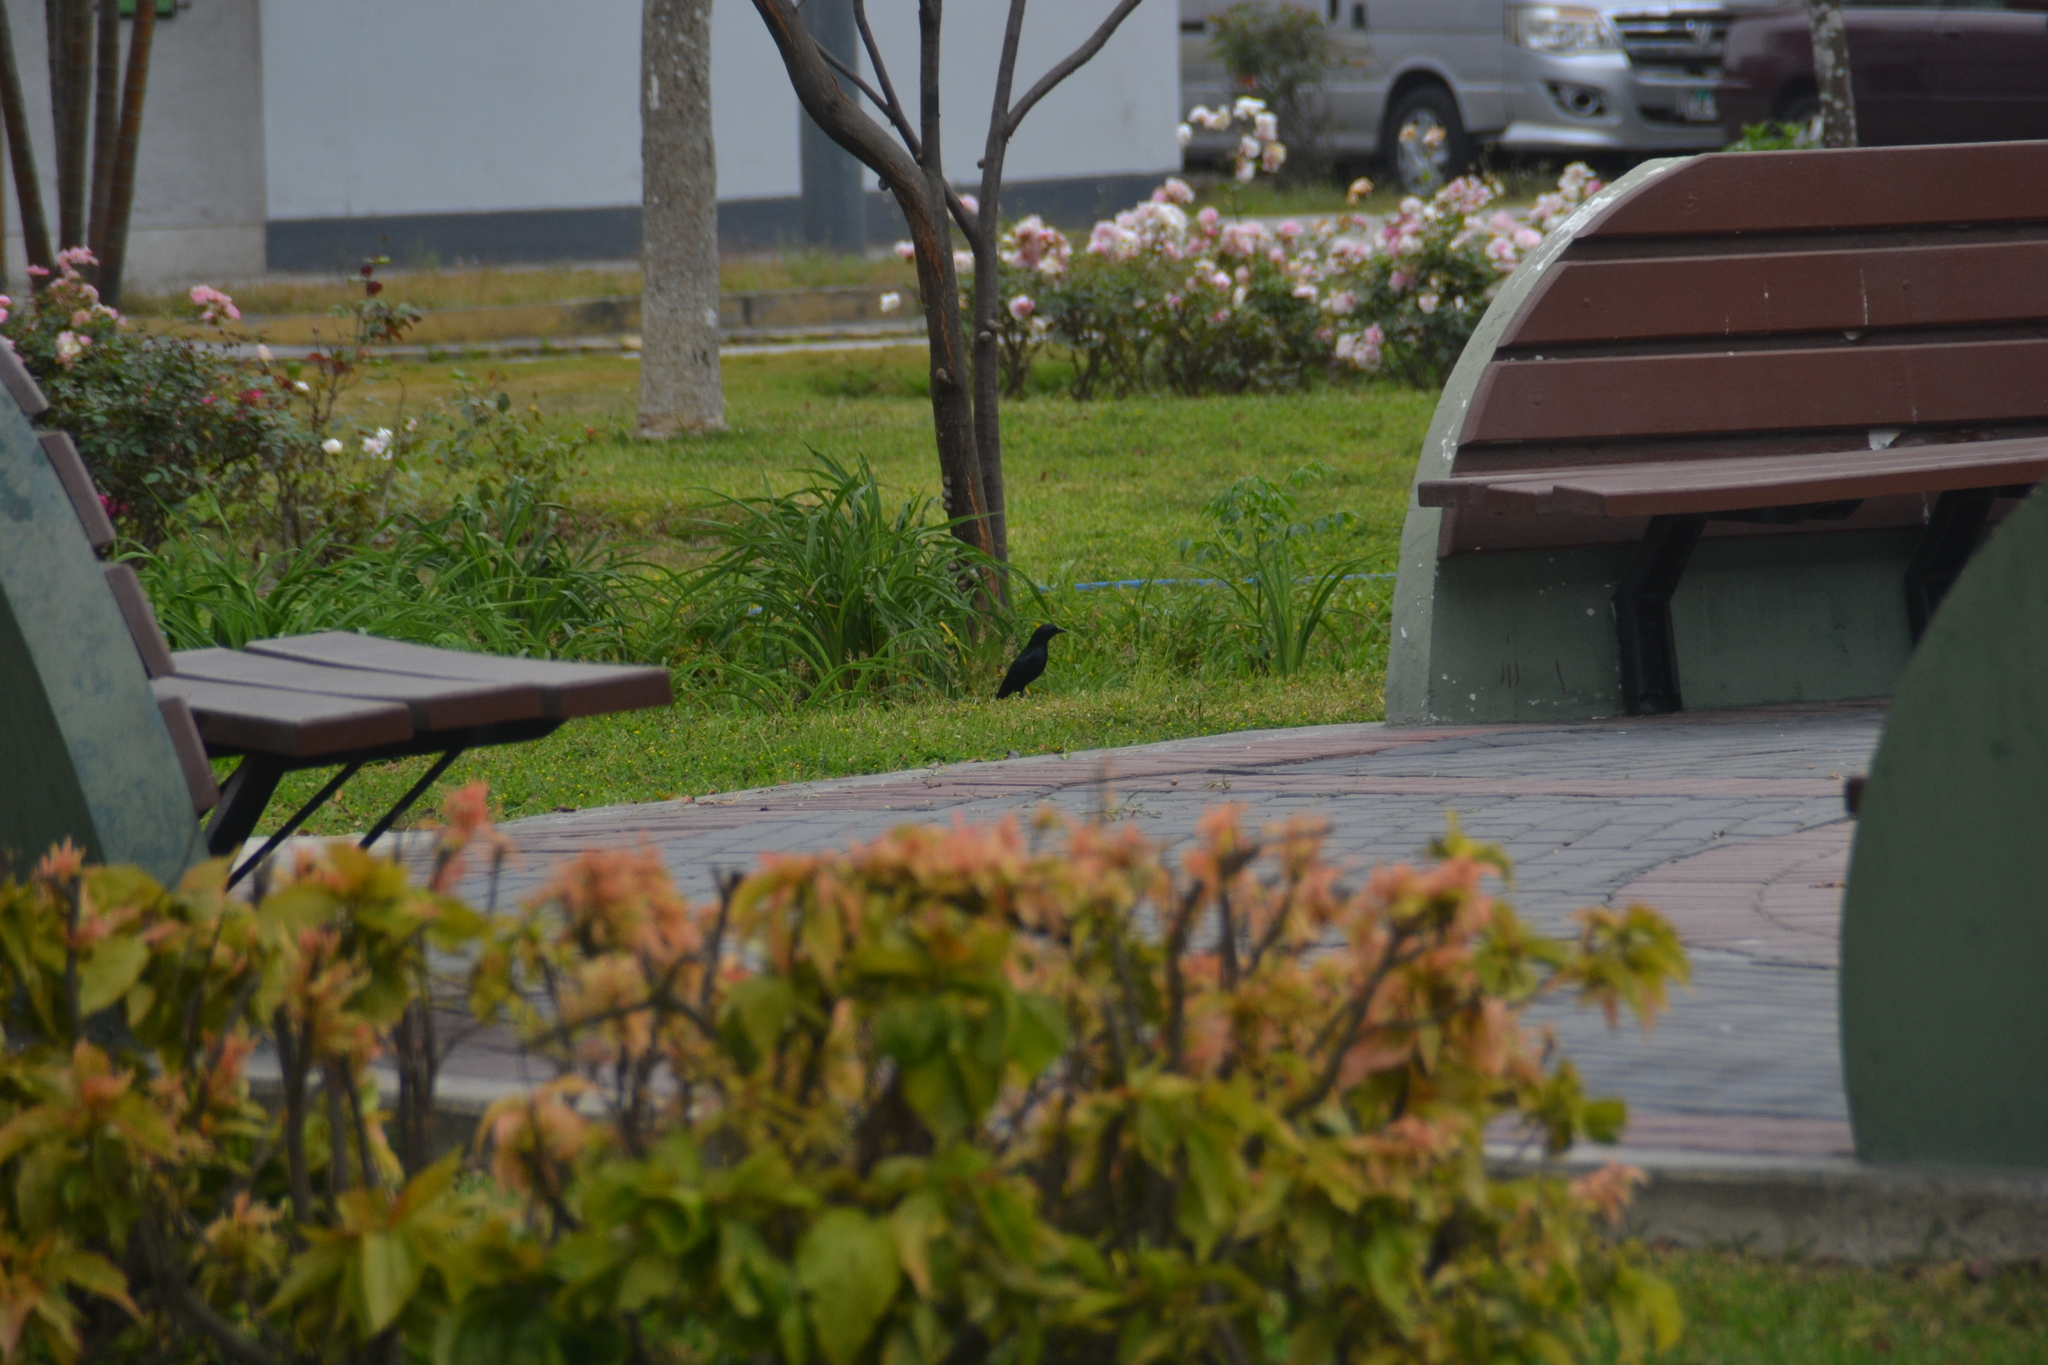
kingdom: Animalia
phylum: Chordata
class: Aves
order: Passeriformes
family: Icteridae
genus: Molothrus
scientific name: Molothrus bonariensis
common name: Shiny cowbird
